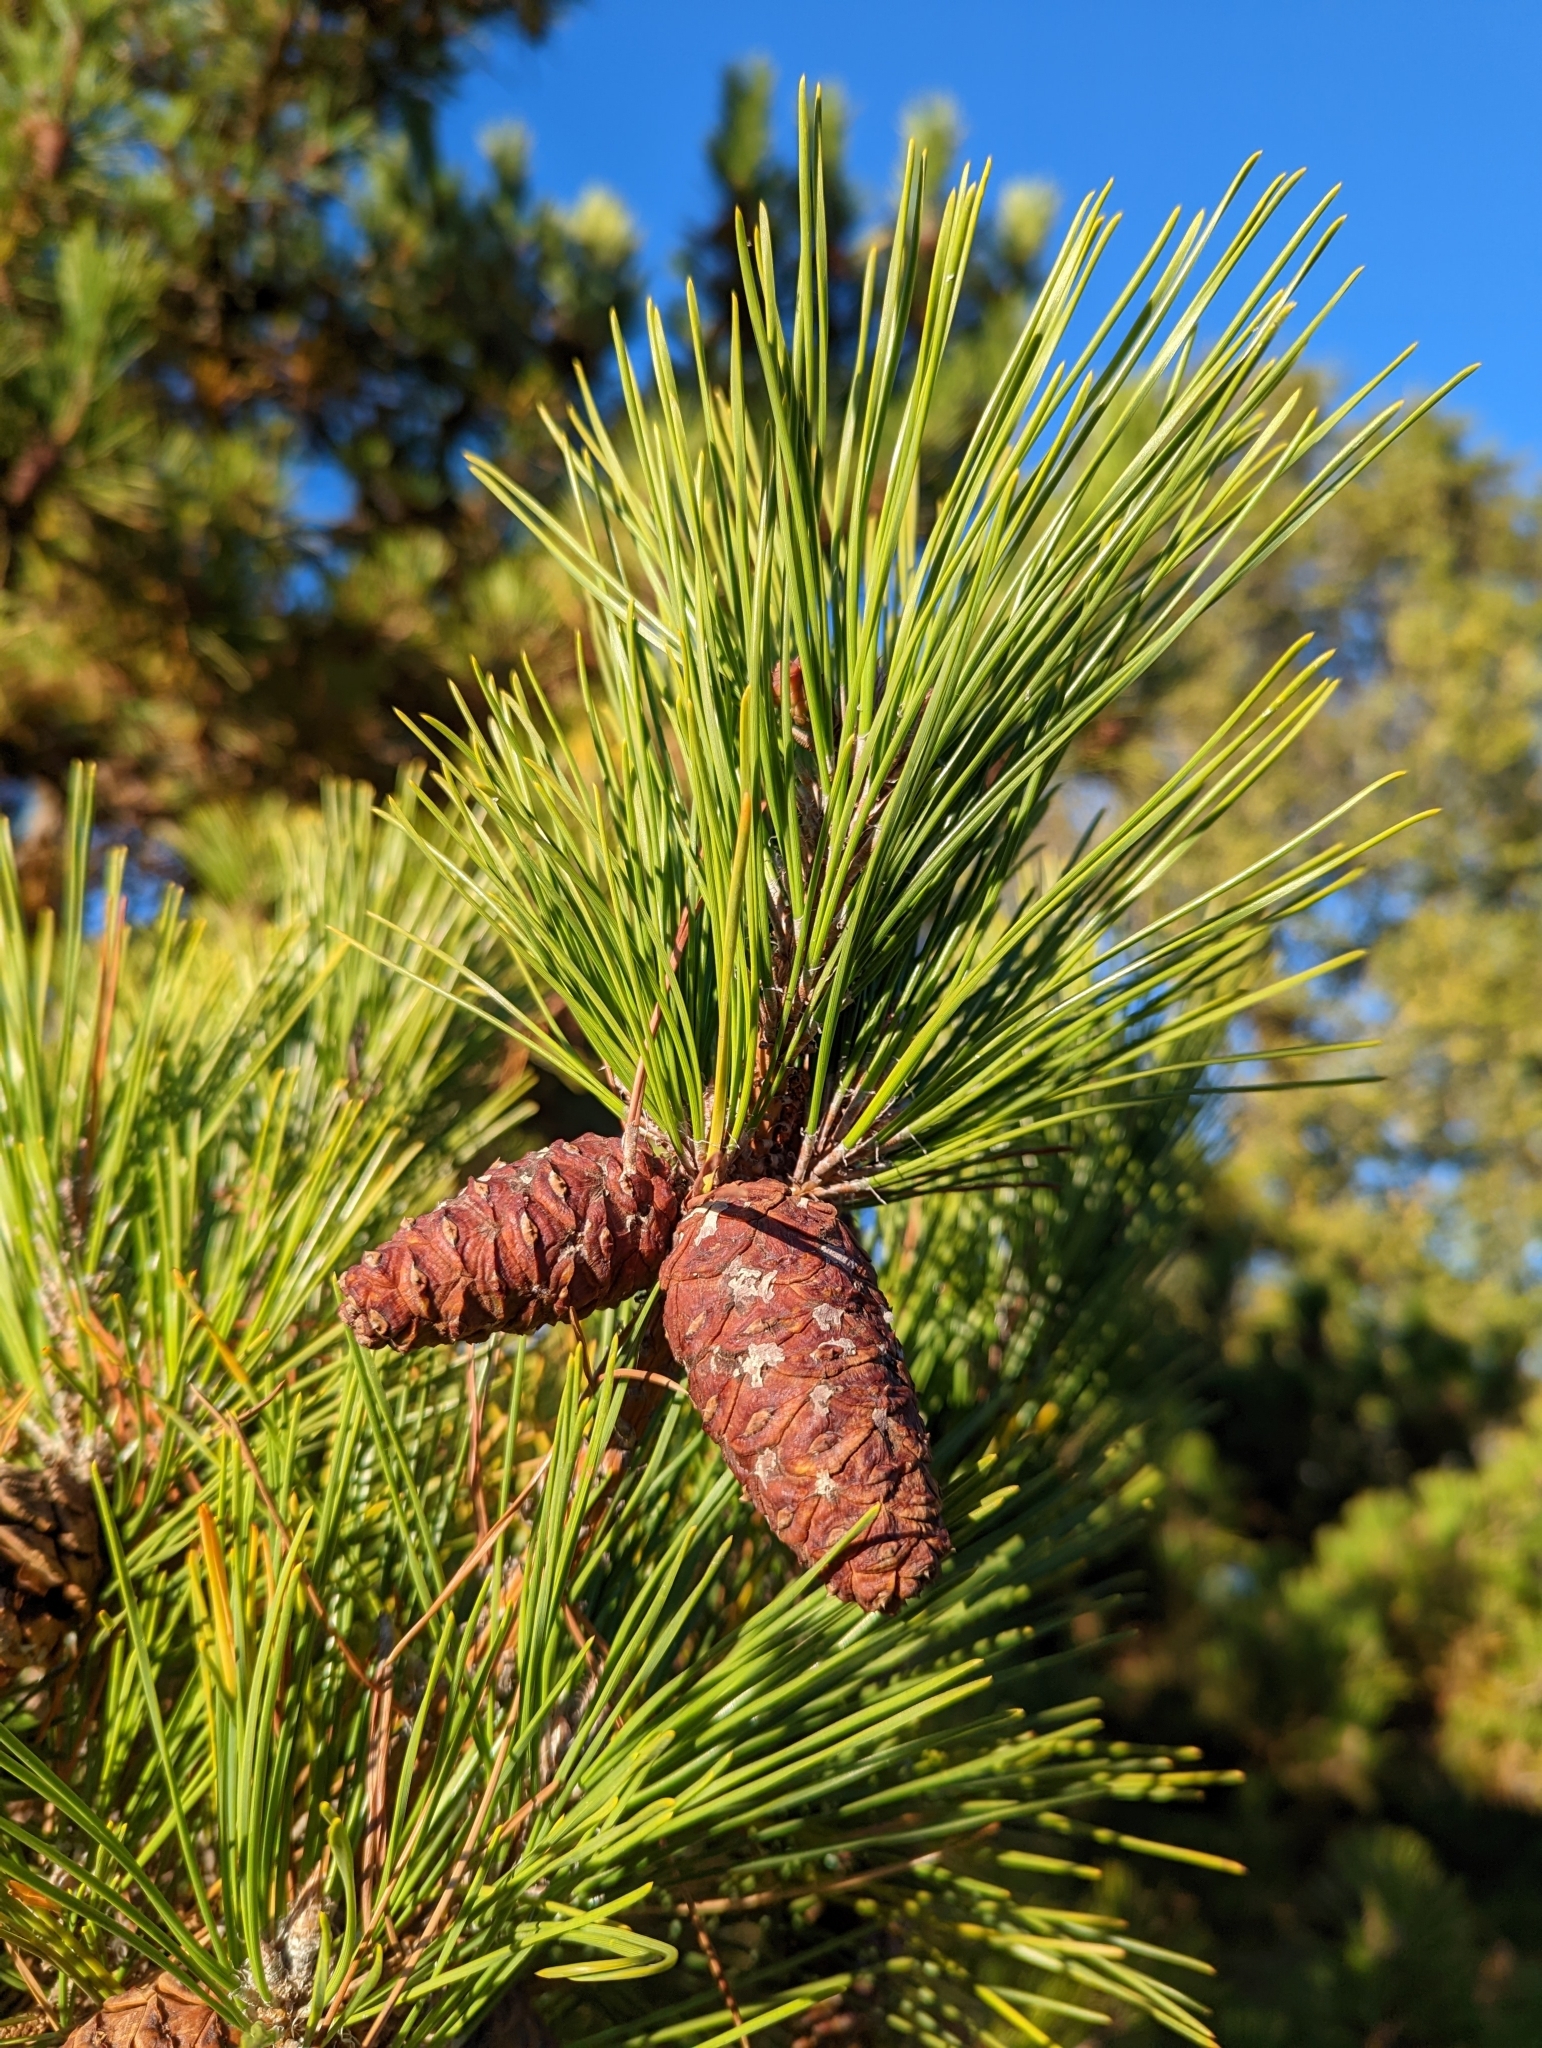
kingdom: Plantae
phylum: Tracheophyta
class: Pinopsida
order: Pinales
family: Pinaceae
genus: Pinus
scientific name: Pinus contorta
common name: Lodgepole pine
